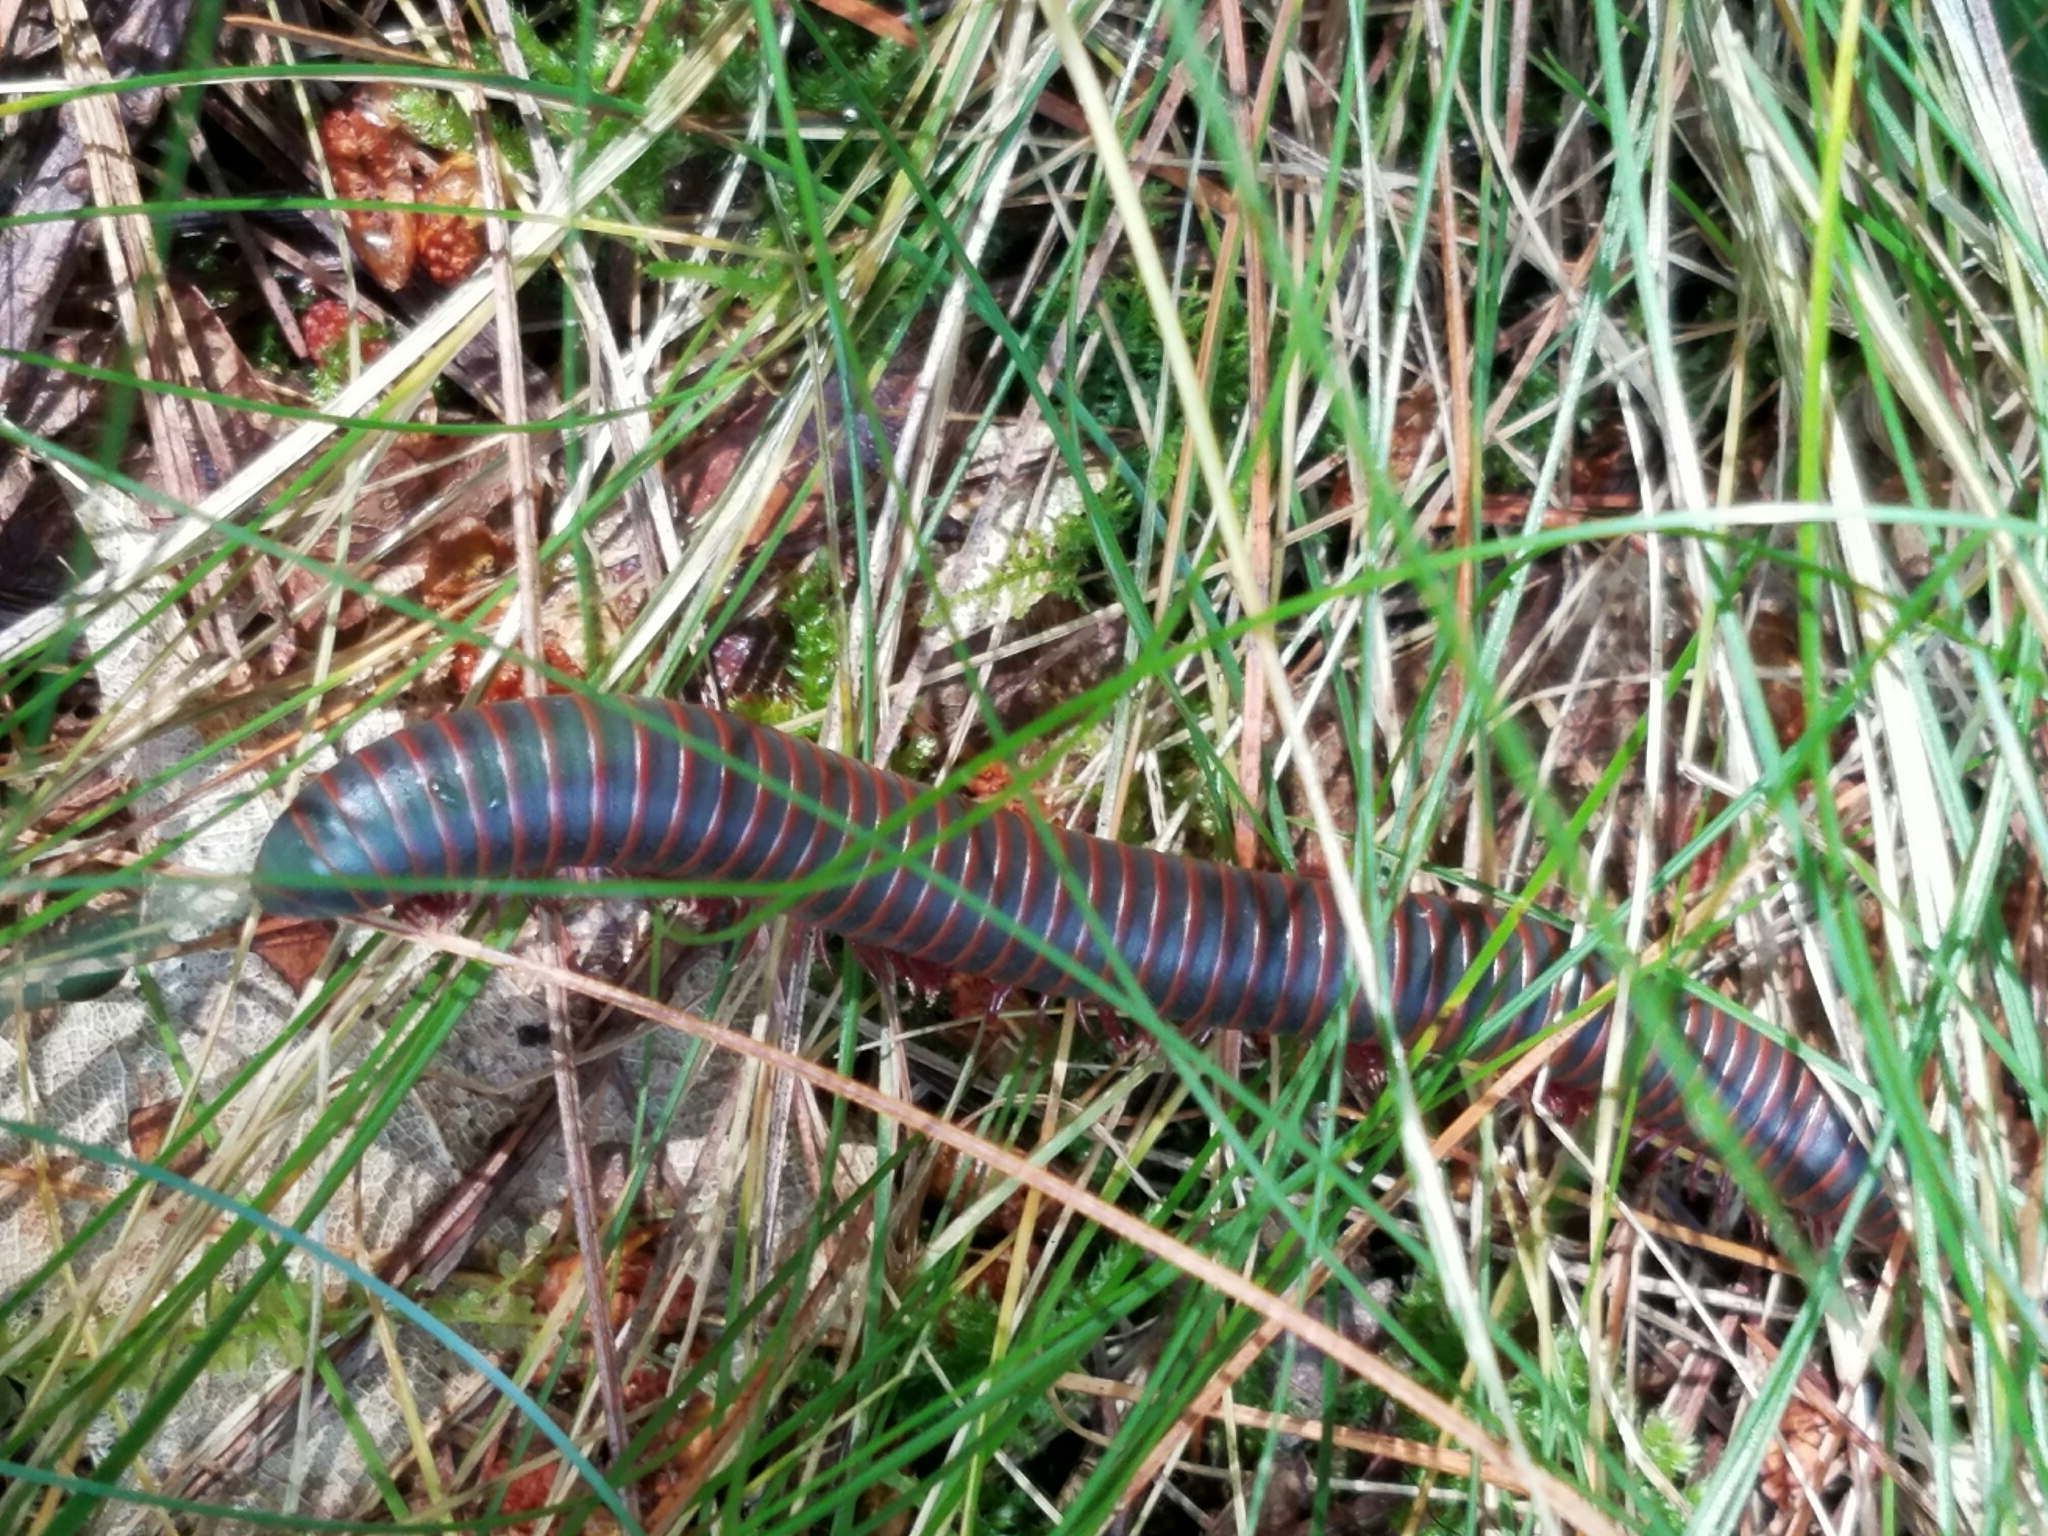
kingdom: Animalia
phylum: Arthropoda
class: Diplopoda
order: Spirobolida
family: Spirobolidae
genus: Narceus
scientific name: Narceus
